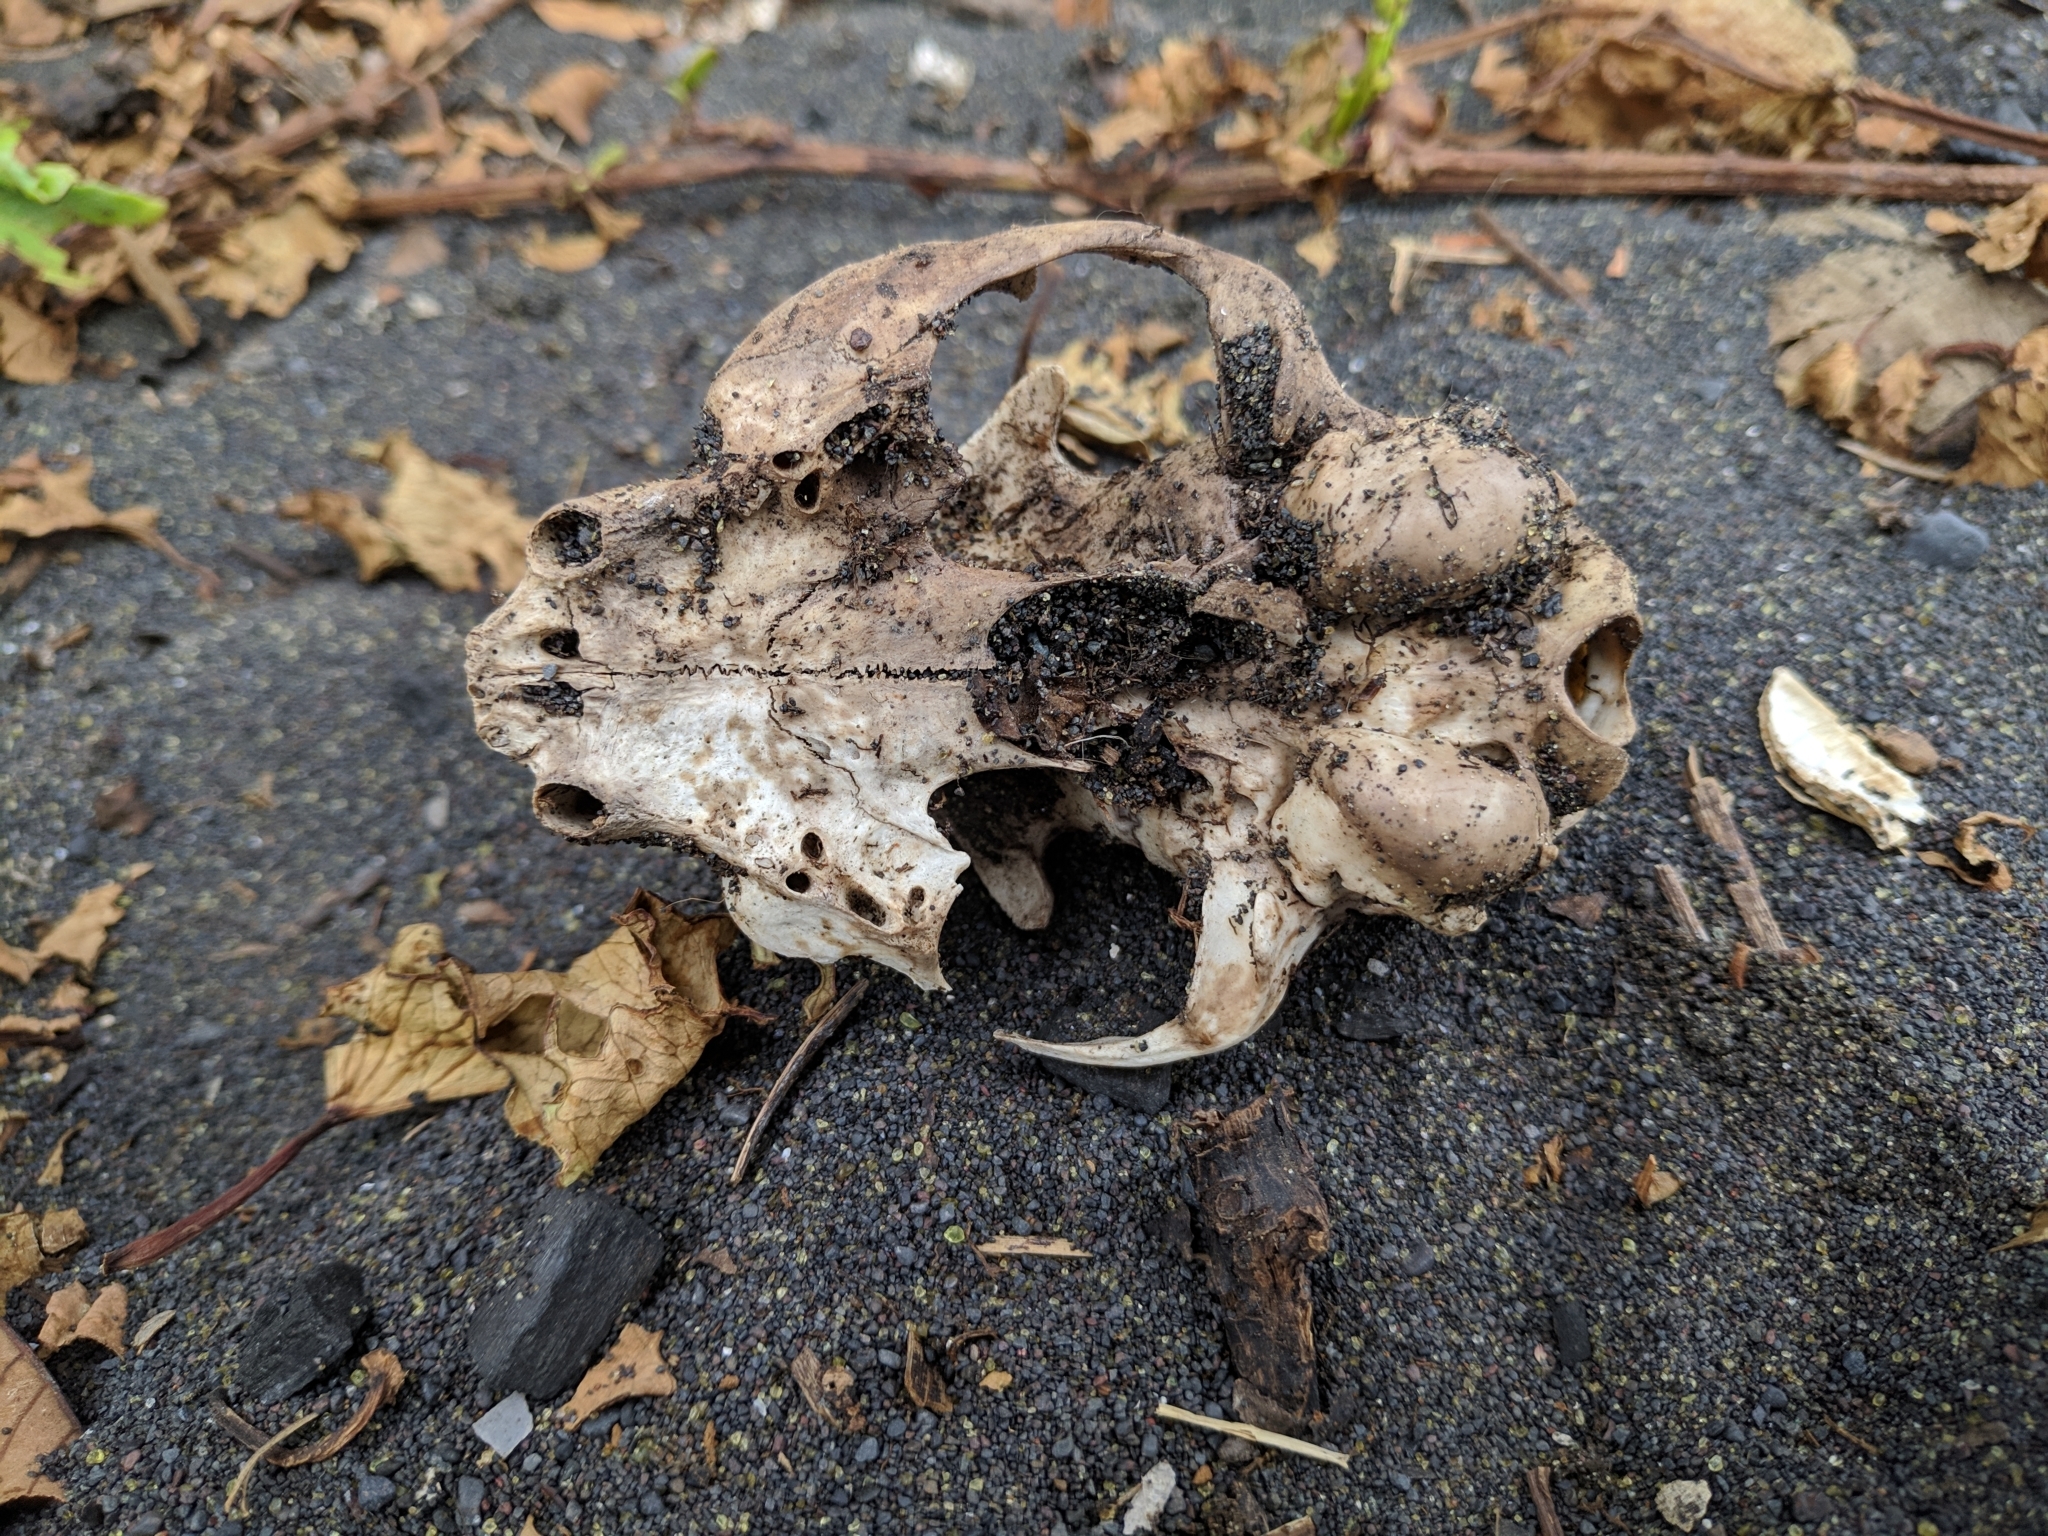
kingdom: Animalia
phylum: Chordata
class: Mammalia
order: Carnivora
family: Felidae
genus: Felis
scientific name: Felis catus
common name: Domestic cat
